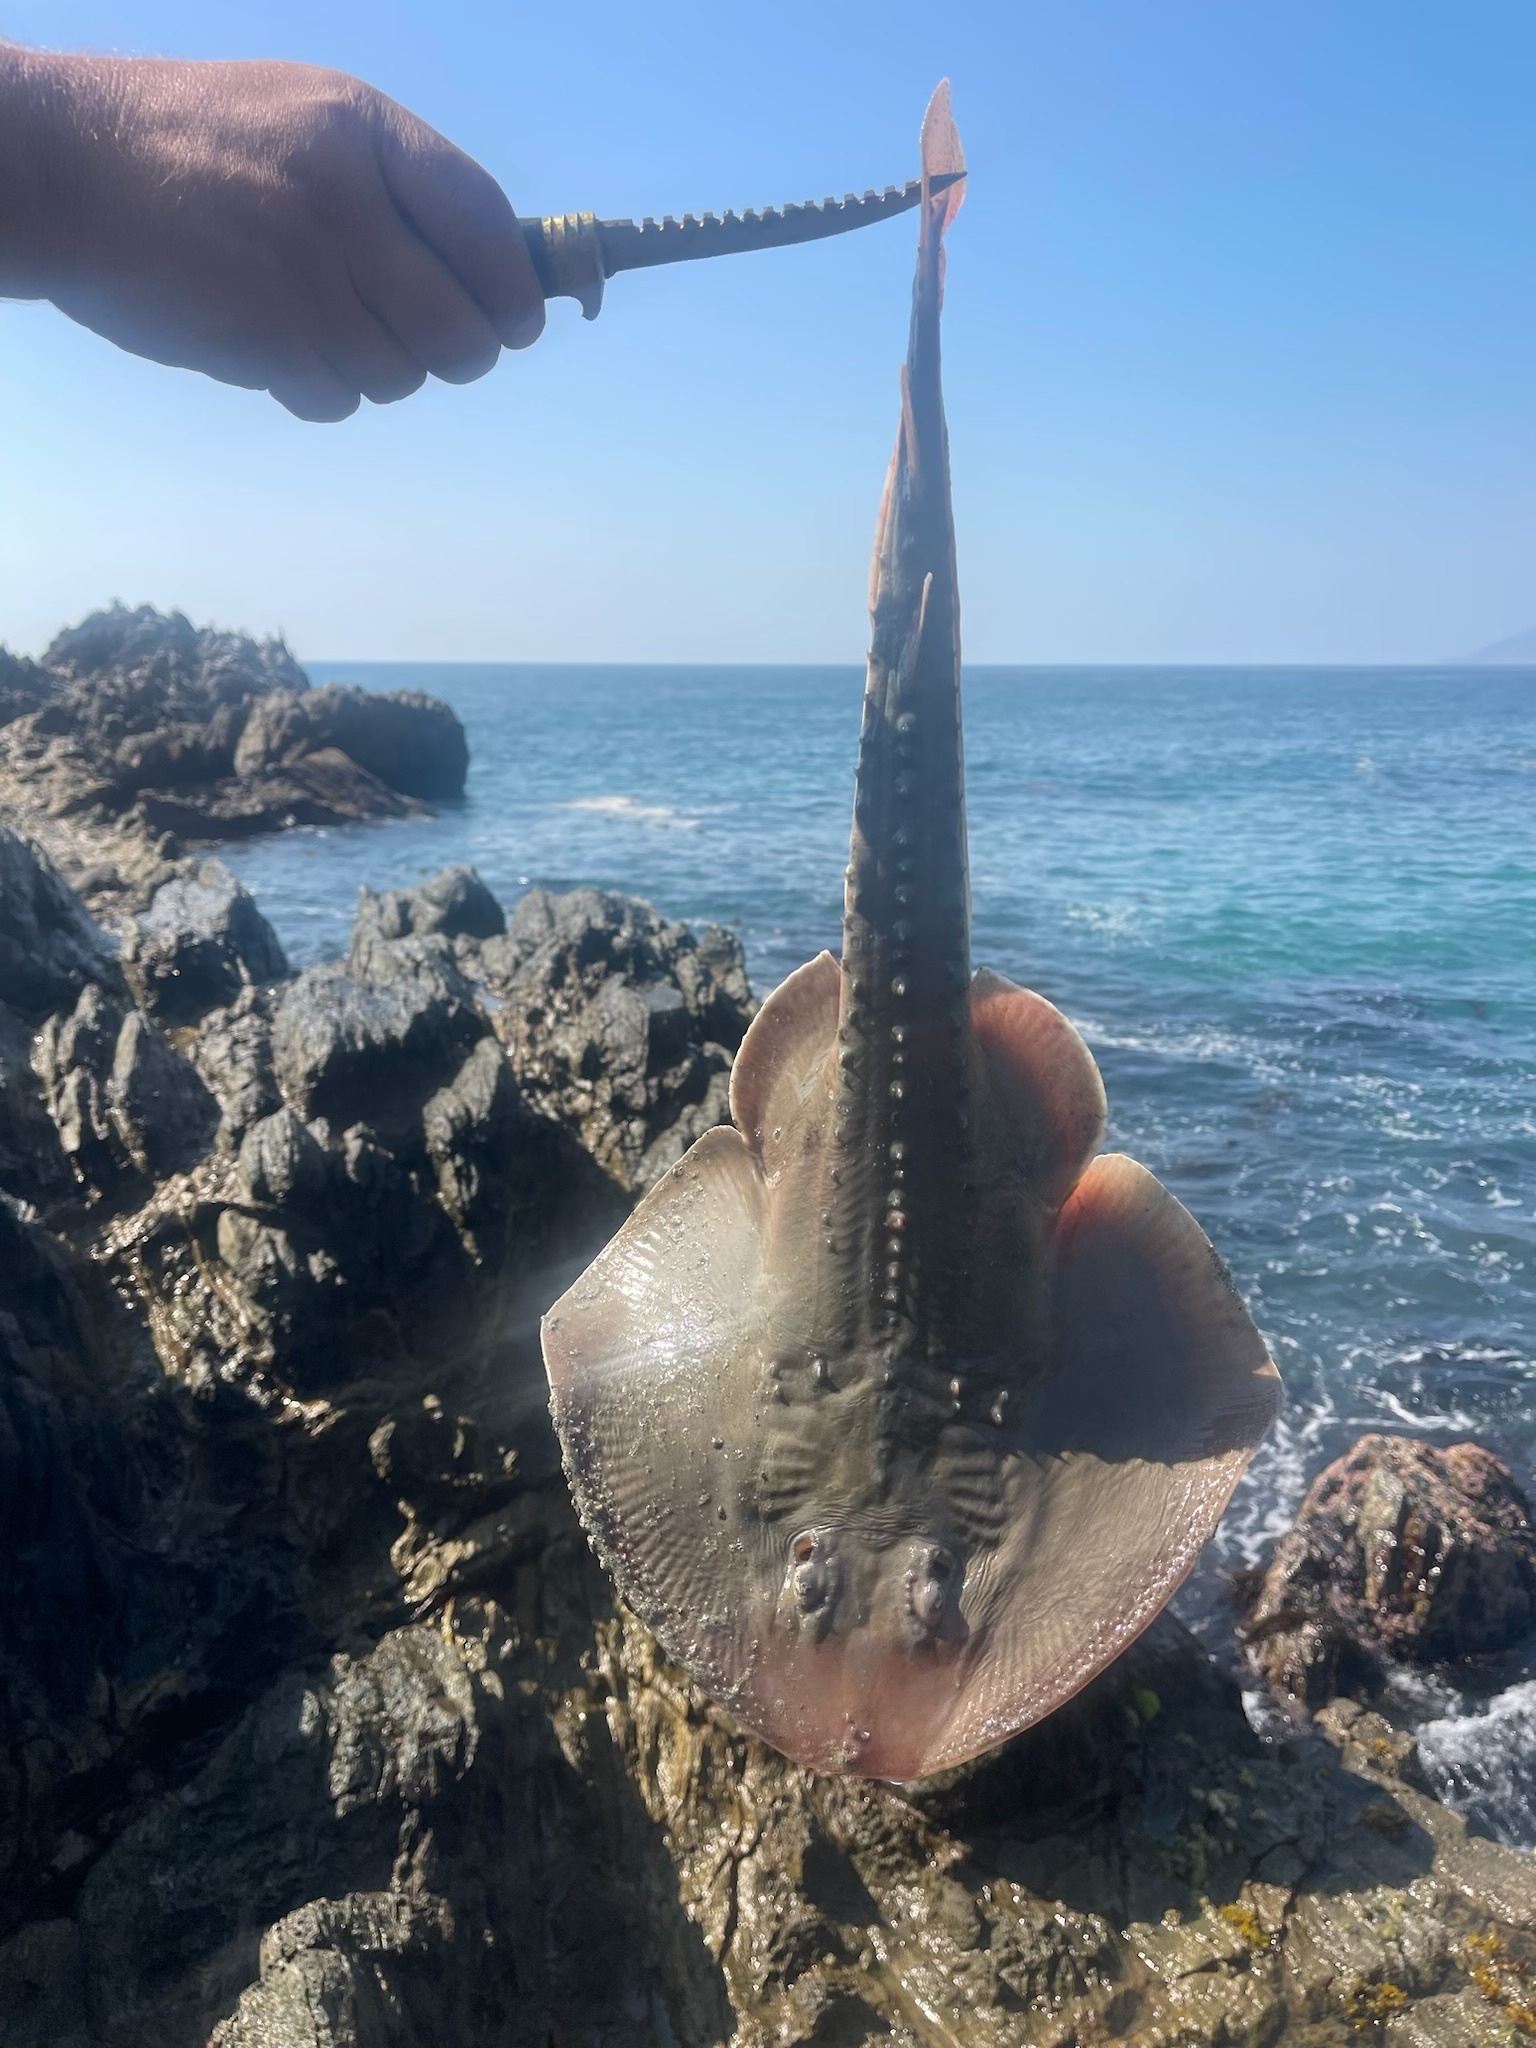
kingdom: Animalia
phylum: Chordata
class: Elasmobranchii
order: Rhinopristiformes
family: Rhinobatidae
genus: Platyrhinoidis
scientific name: Platyrhinoidis triseriata
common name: Thornback
